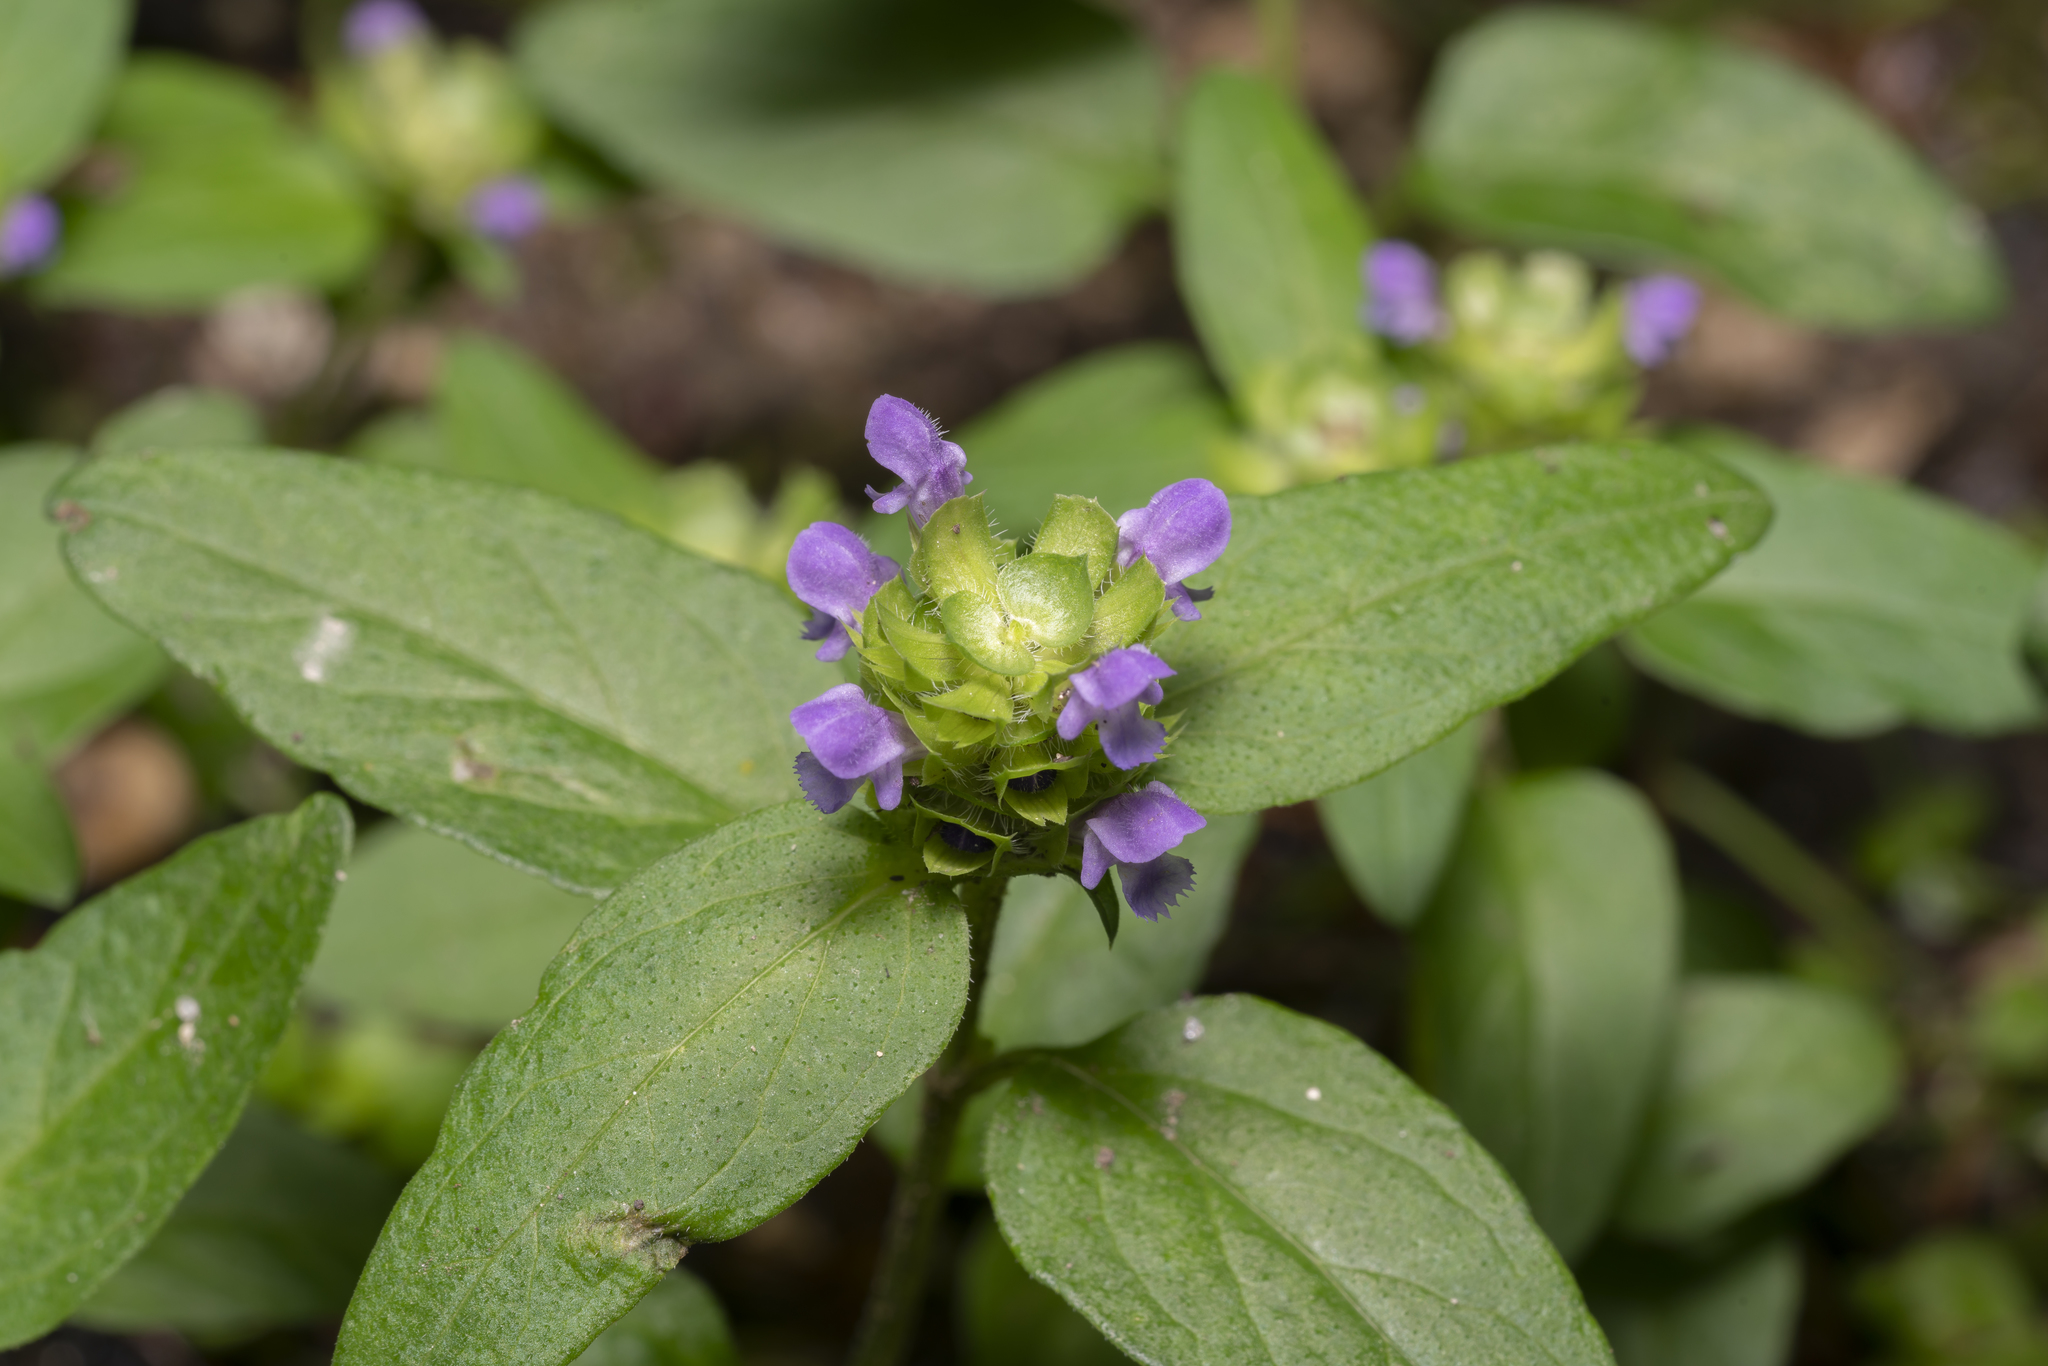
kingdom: Plantae
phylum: Tracheophyta
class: Magnoliopsida
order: Lamiales
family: Lamiaceae
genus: Prunella
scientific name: Prunella vulgaris
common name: Heal-all
